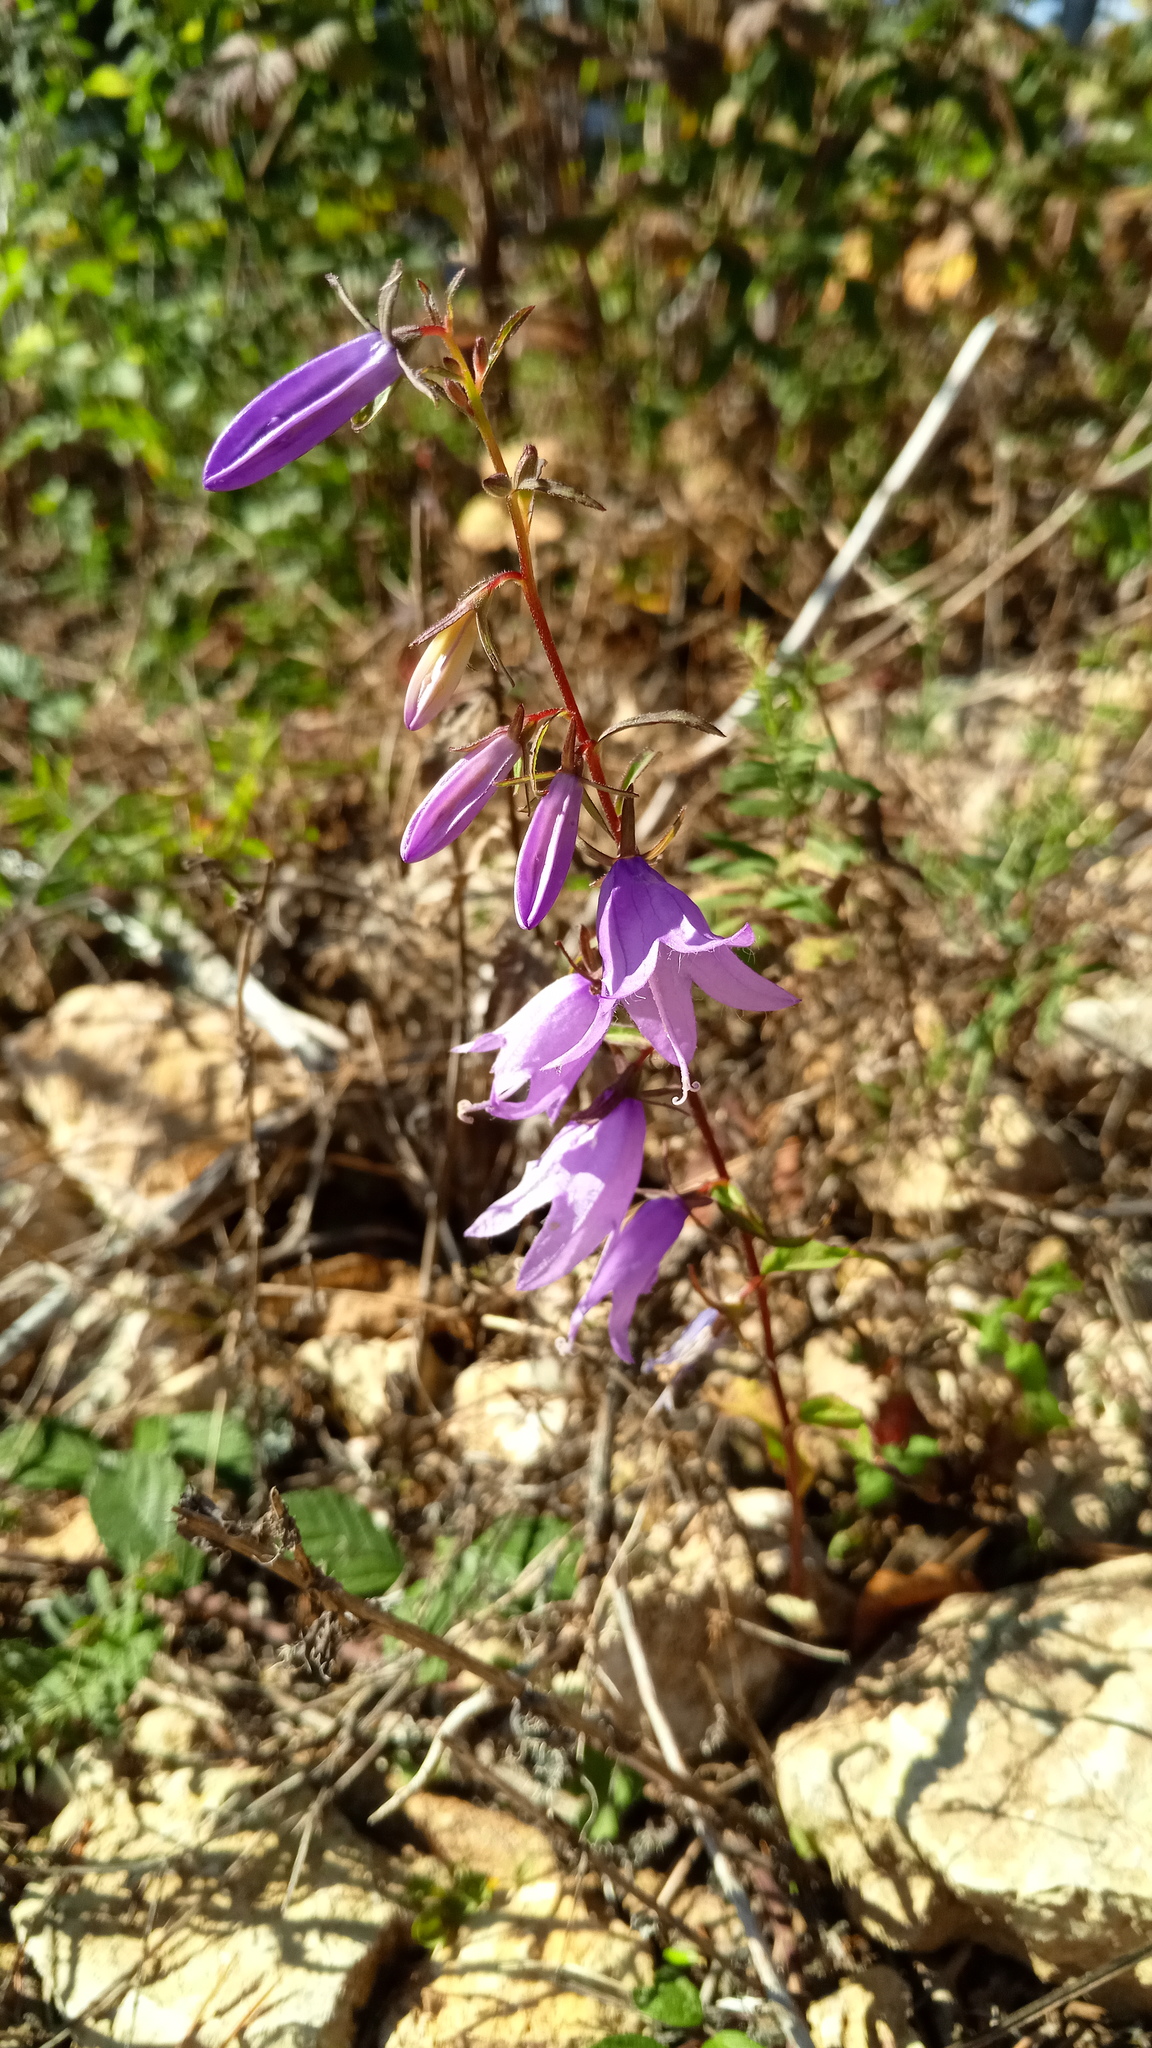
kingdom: Plantae
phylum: Tracheophyta
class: Magnoliopsida
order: Asterales
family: Campanulaceae
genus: Campanula
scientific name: Campanula rapunculoides
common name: Creeping bellflower
